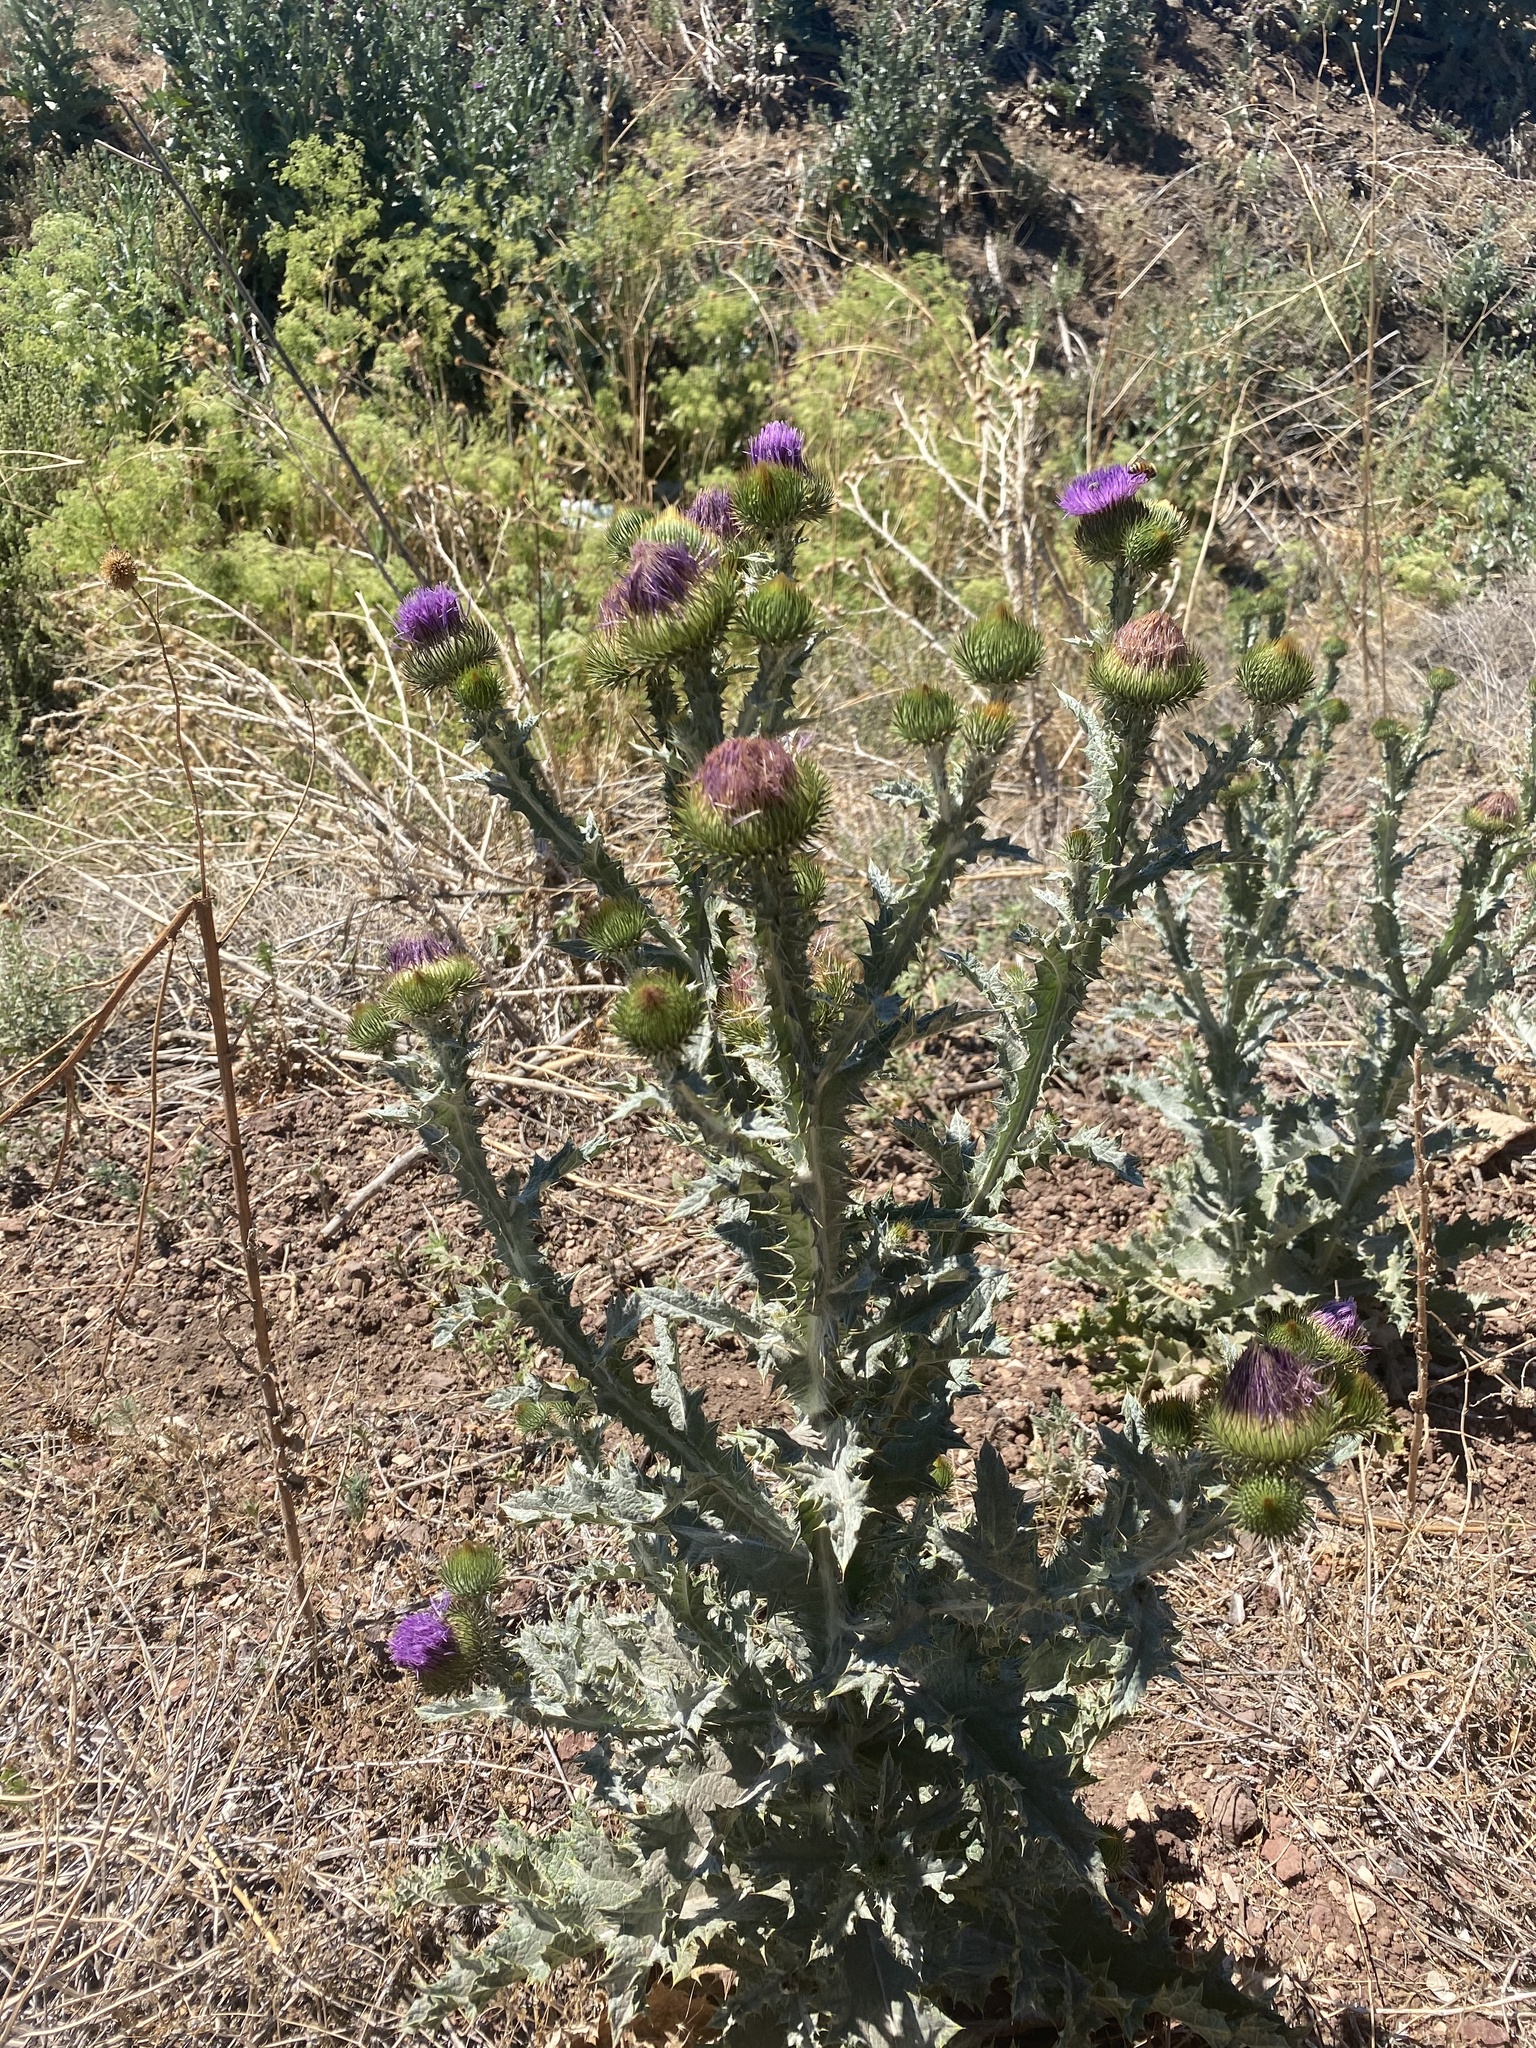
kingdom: Plantae
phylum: Tracheophyta
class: Magnoliopsida
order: Asterales
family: Asteraceae
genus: Onopordum
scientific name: Onopordum acanthium
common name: Scotch thistle
